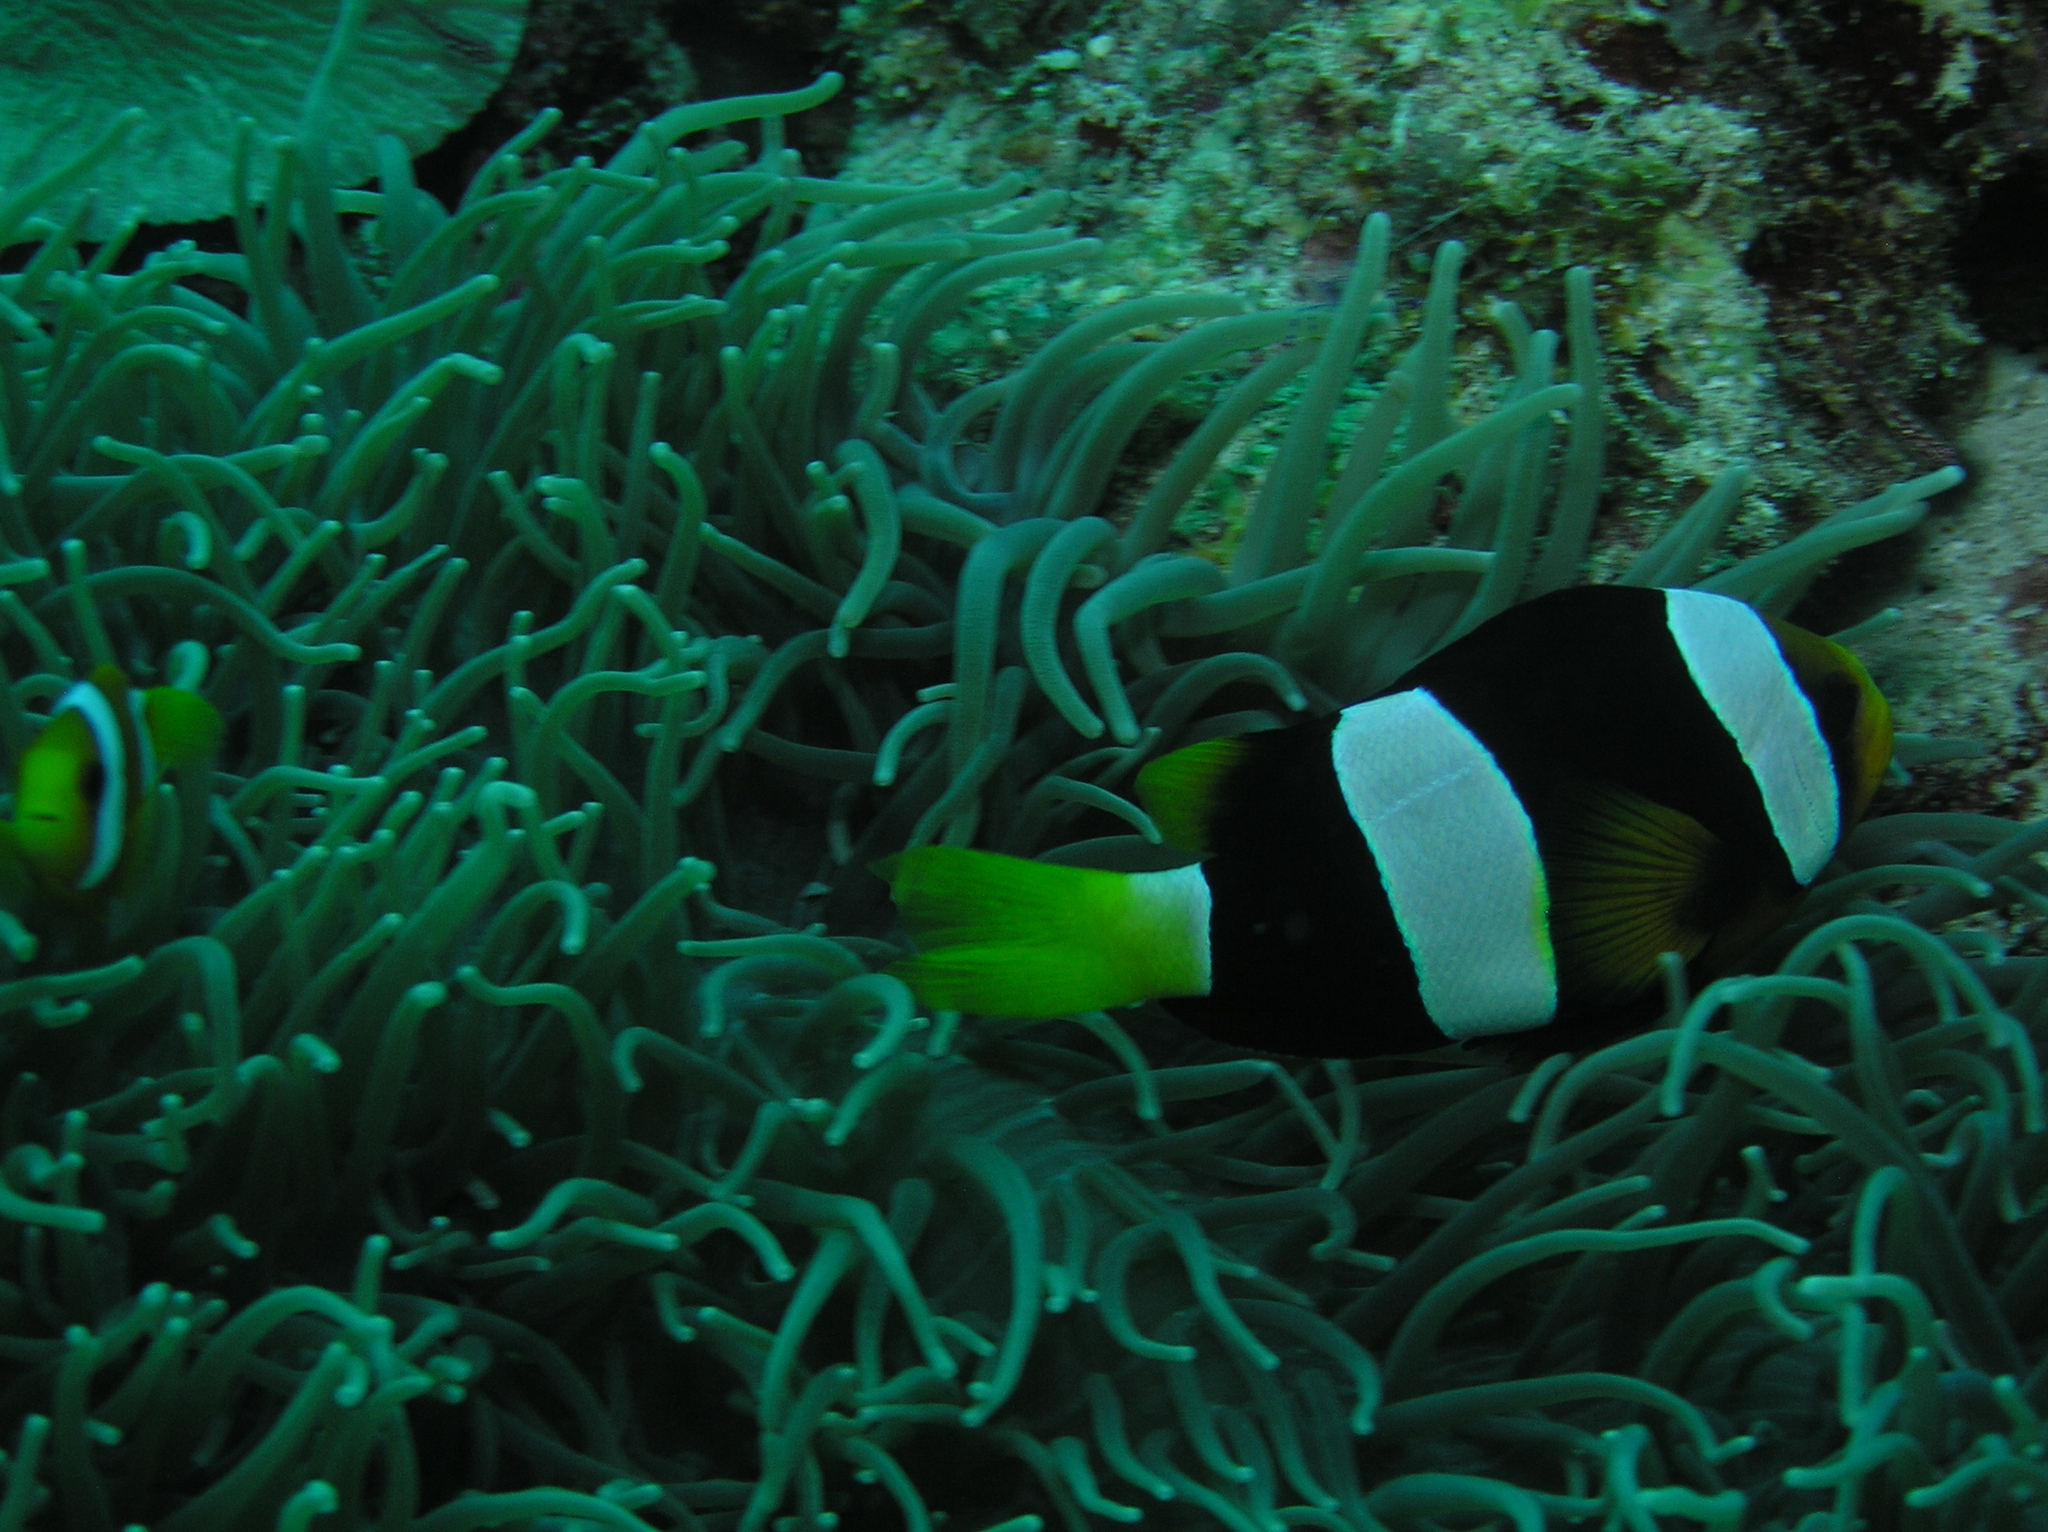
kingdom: Animalia
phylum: Chordata
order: Perciformes
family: Pomacentridae
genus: Amphiprion
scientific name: Amphiprion clarkii
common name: Clark's anemonefish
